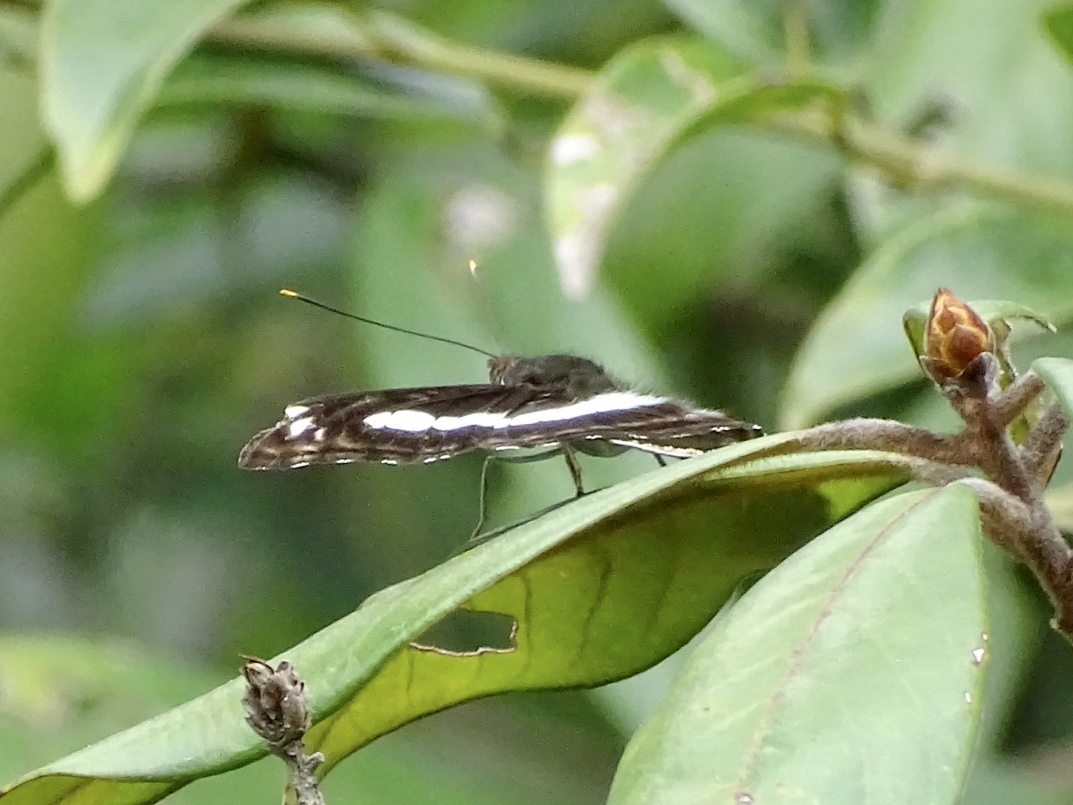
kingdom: Animalia
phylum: Arthropoda
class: Insecta
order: Lepidoptera
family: Nymphalidae
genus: Parathyma
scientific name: Parathyma selenophora
